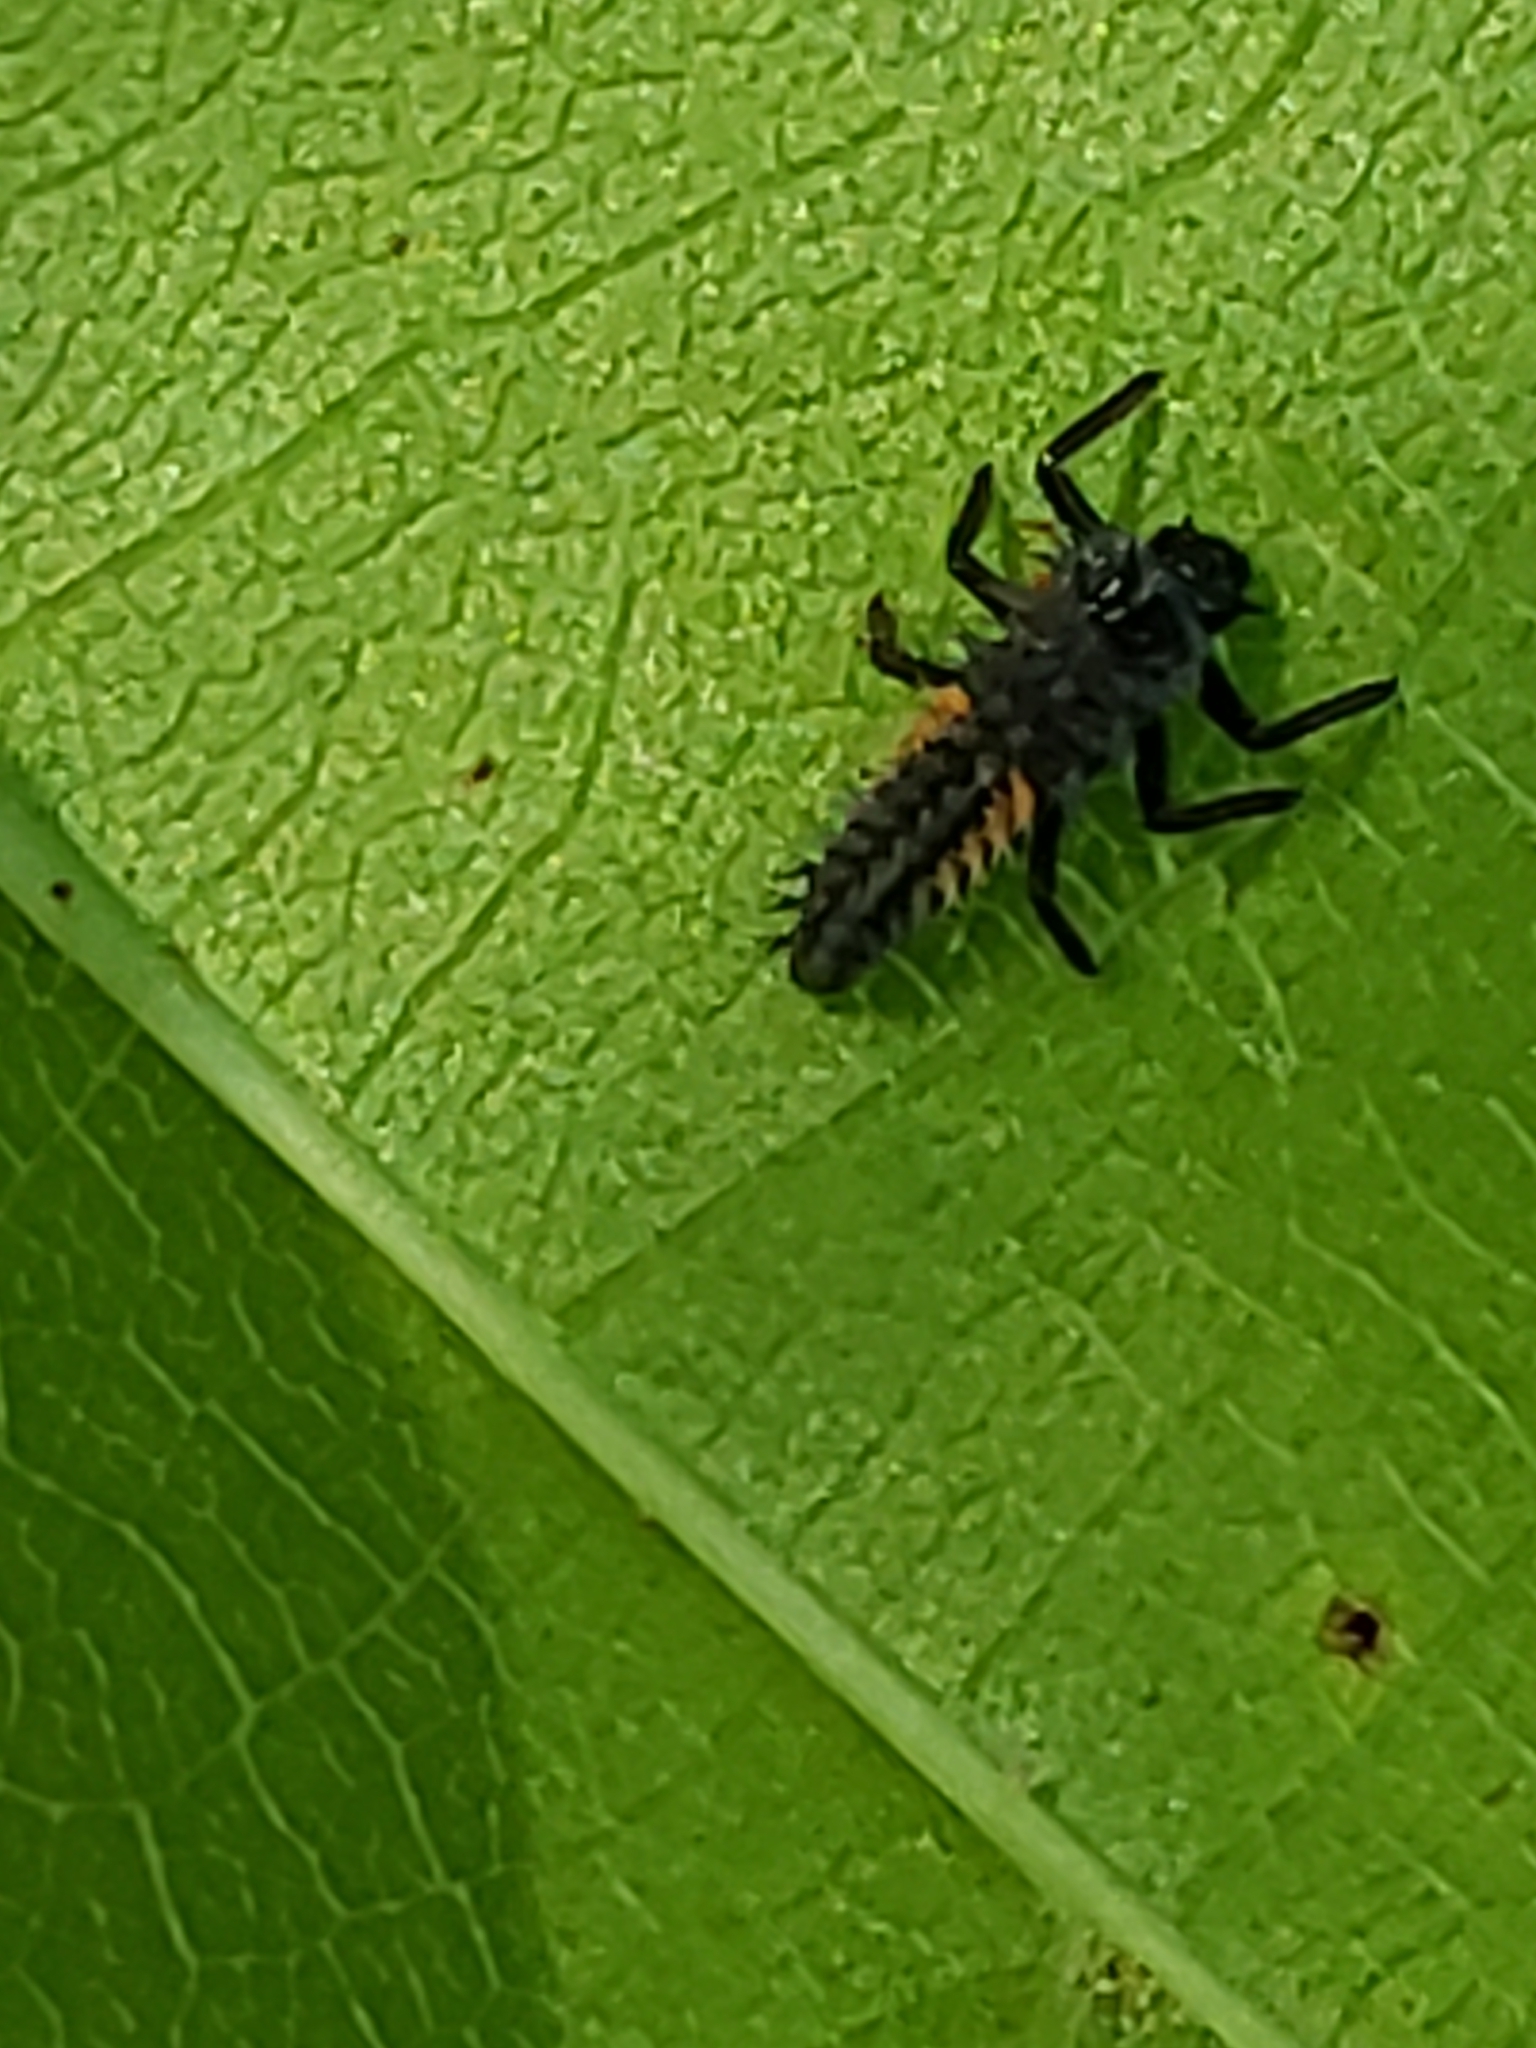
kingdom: Animalia
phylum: Arthropoda
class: Insecta
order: Coleoptera
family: Coccinellidae
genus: Harmonia
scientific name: Harmonia axyridis
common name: Harlequin ladybird
